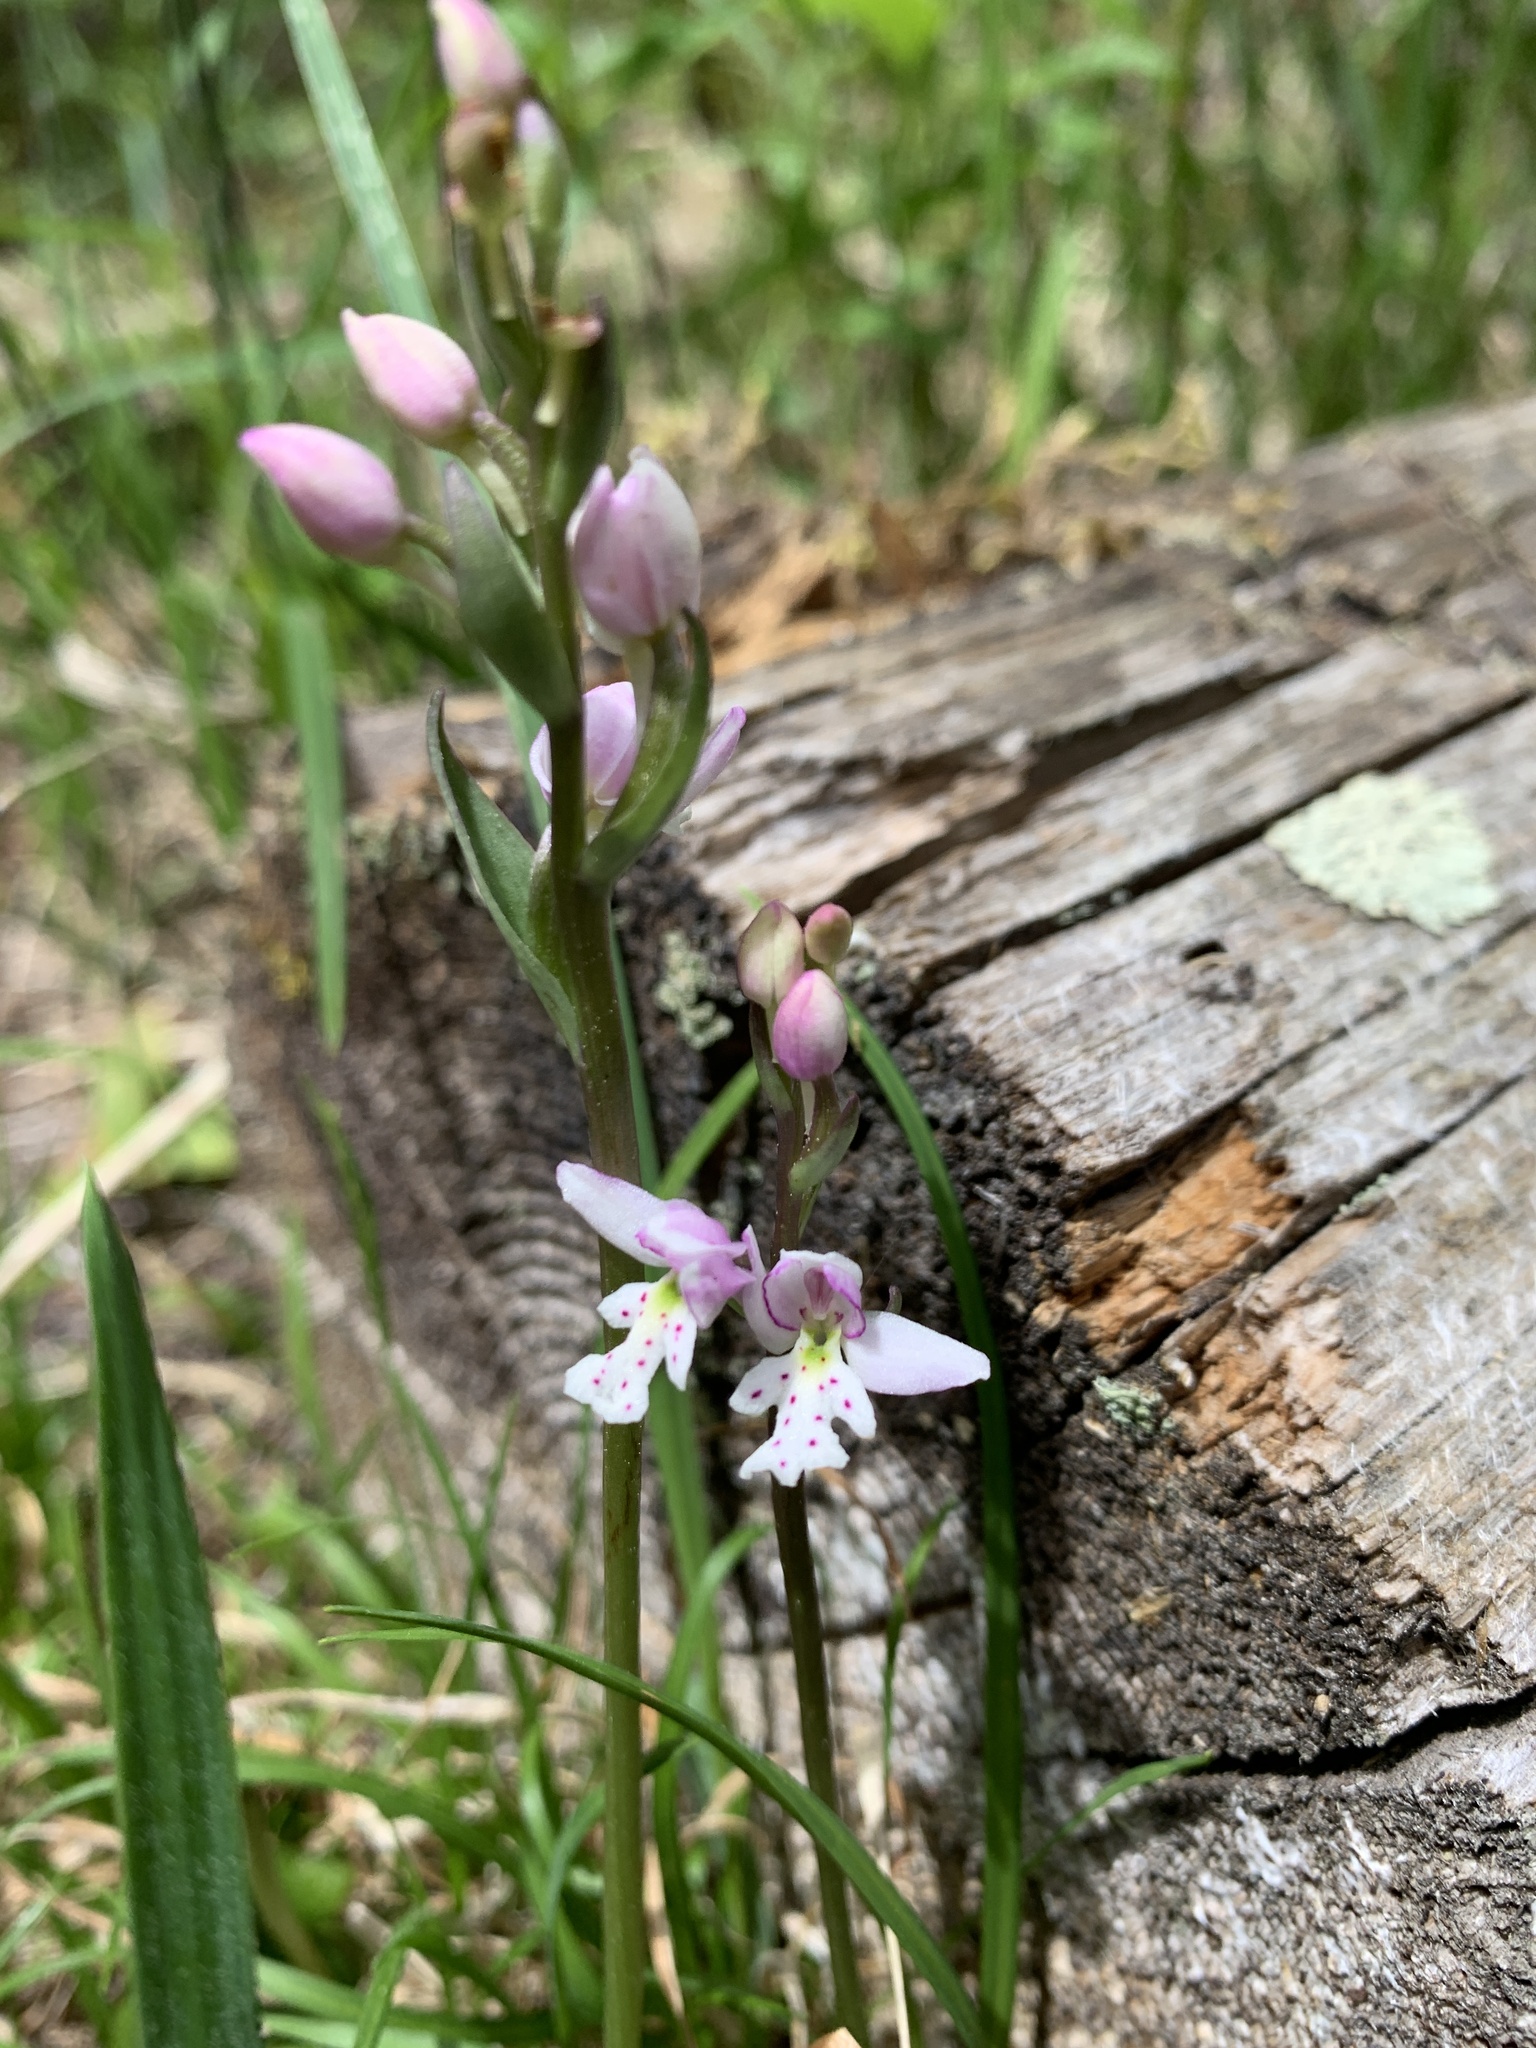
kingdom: Plantae
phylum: Tracheophyta
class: Liliopsida
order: Asparagales
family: Orchidaceae
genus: Galearis
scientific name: Galearis rotundifolia
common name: One-leaved orchis
